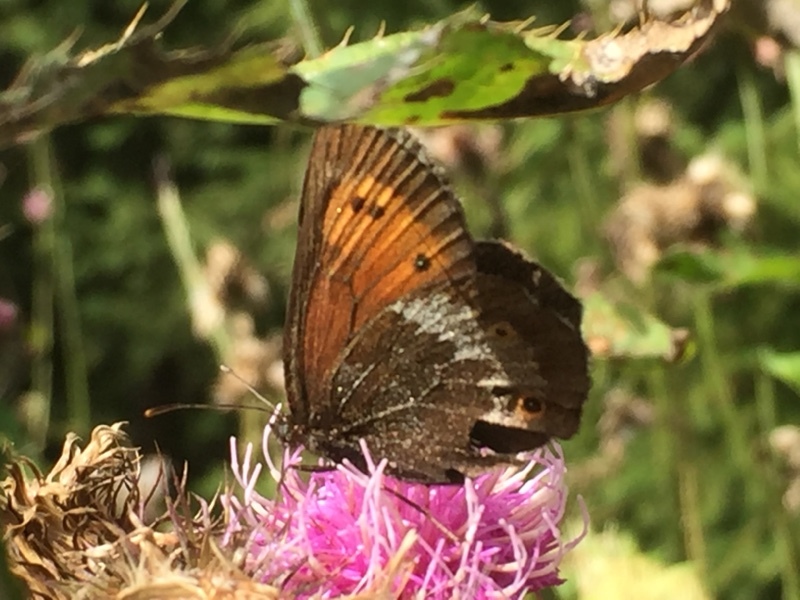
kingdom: Animalia
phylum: Arthropoda
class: Insecta
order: Lepidoptera
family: Nymphalidae
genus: Erebia
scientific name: Erebia euryale
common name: Large ringlet
